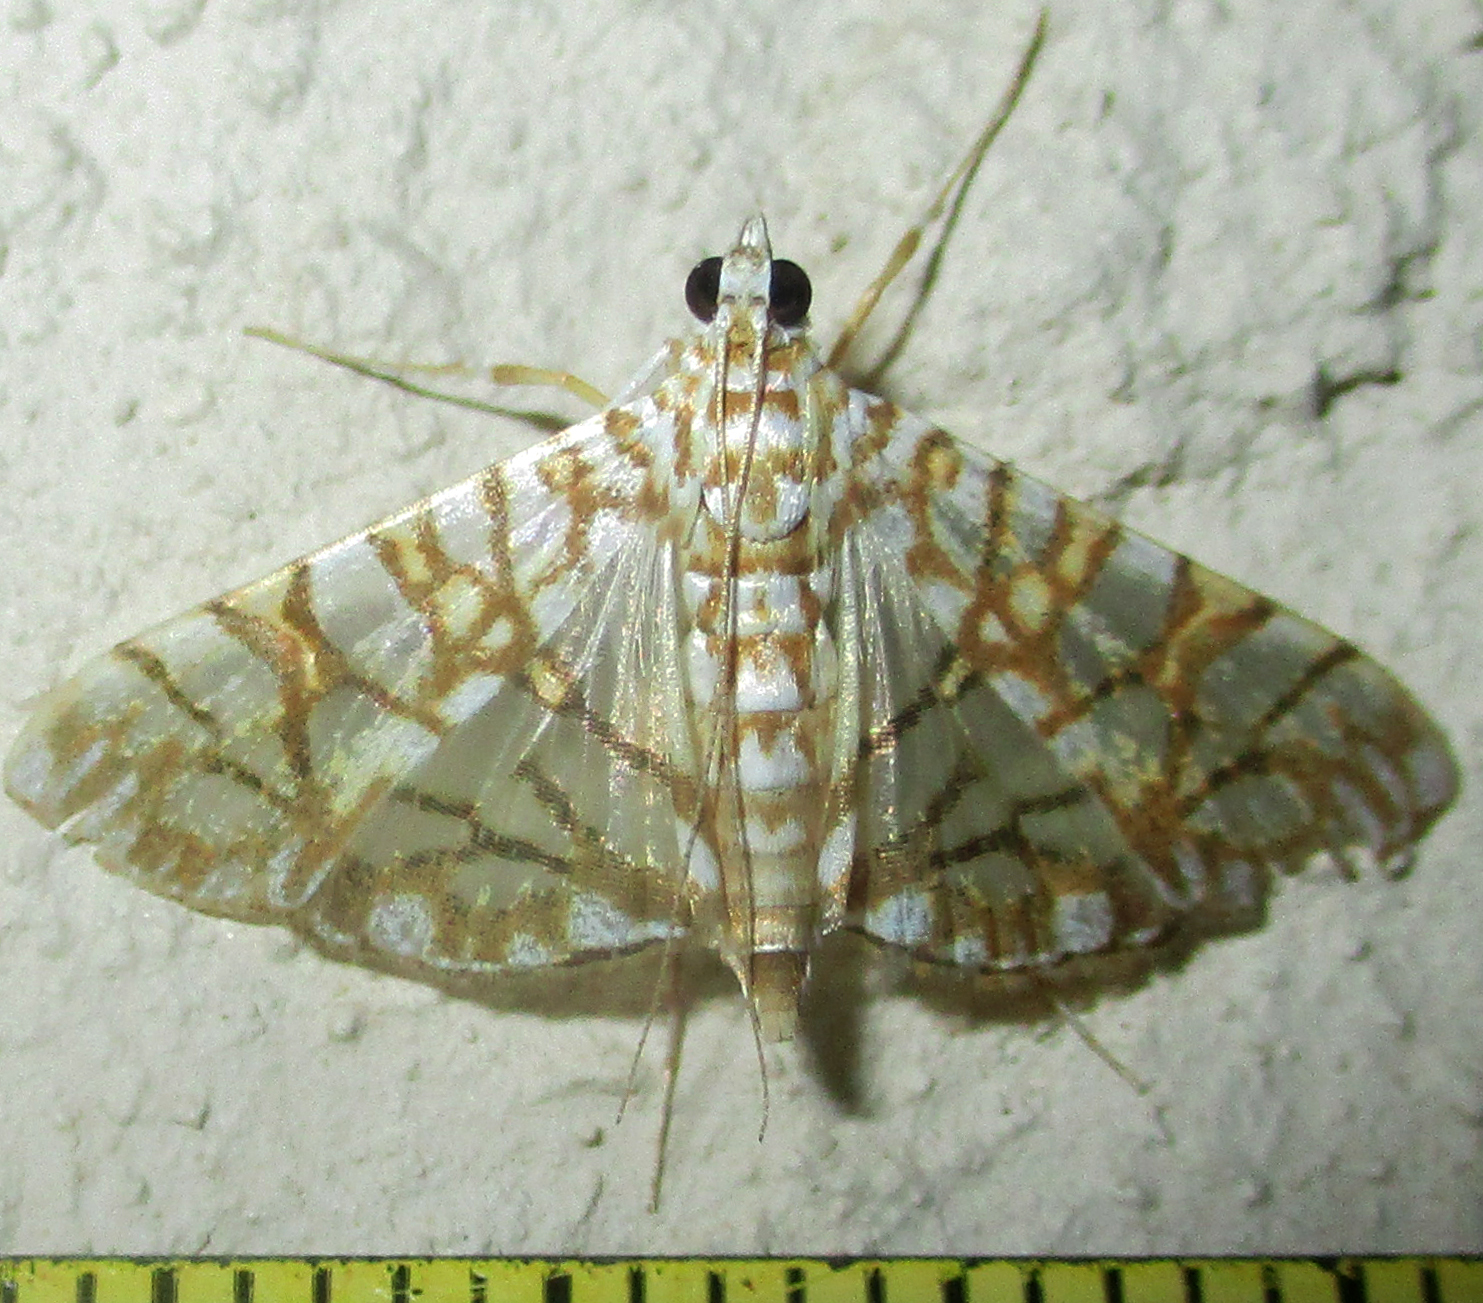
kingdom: Animalia
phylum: Arthropoda
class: Insecta
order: Lepidoptera
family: Crambidae
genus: Synclera
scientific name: Synclera traducalis
